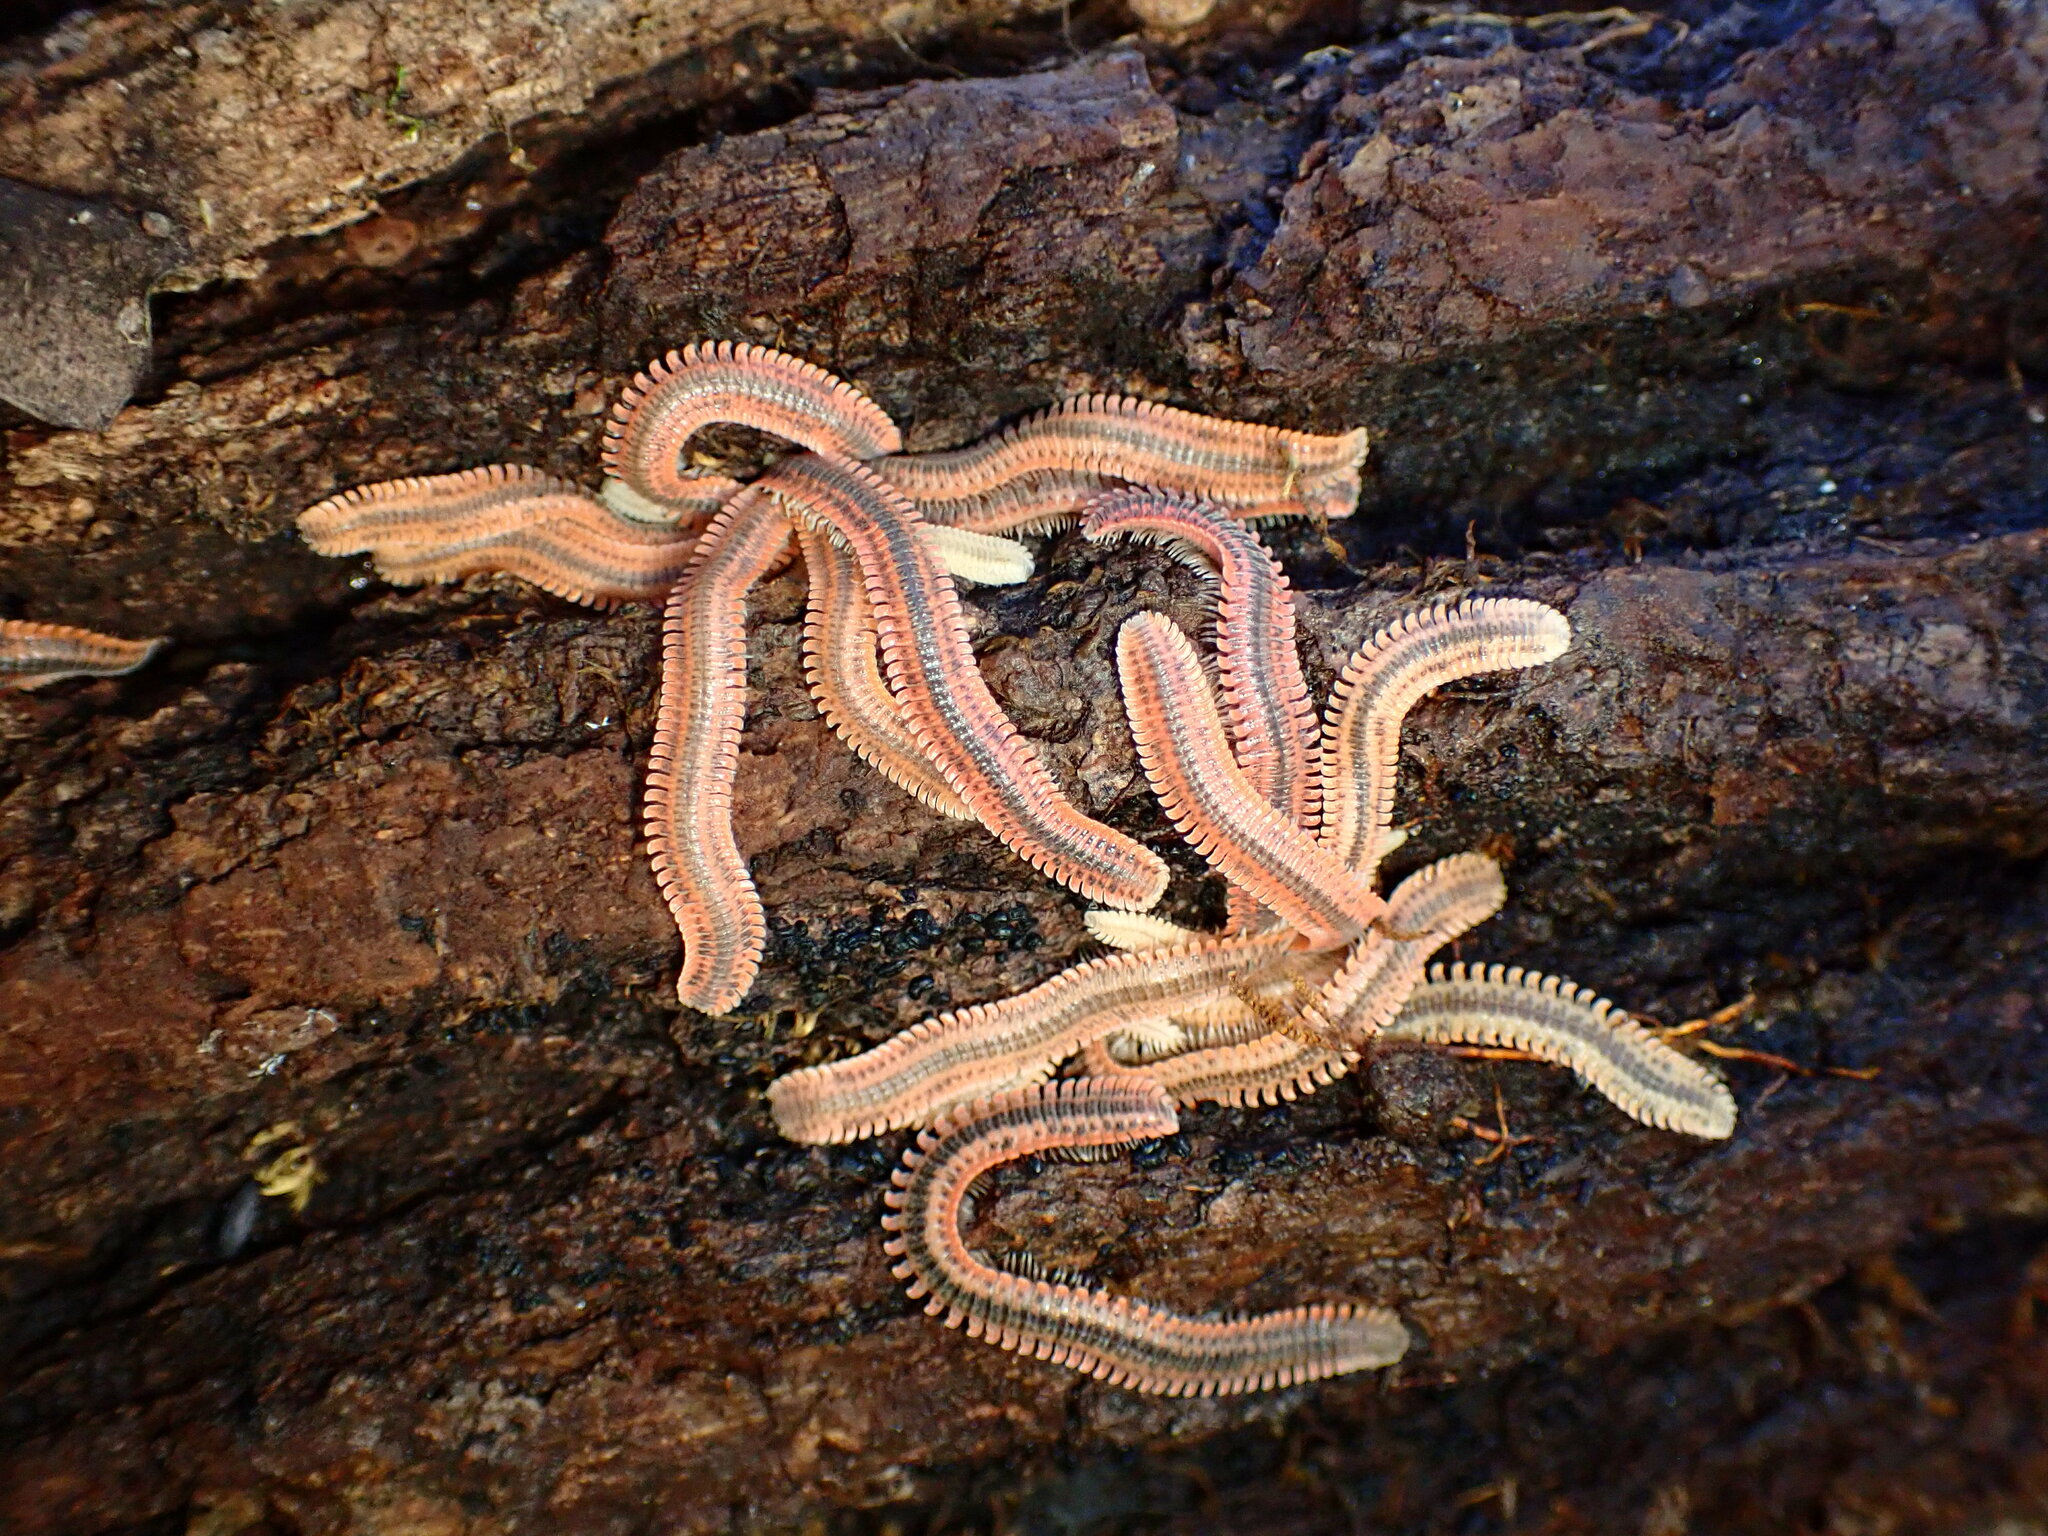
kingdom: Animalia
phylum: Arthropoda
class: Diplopoda
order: Platydesmida
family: Andrognathidae
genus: Brachycybe
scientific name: Brachycybe producta
